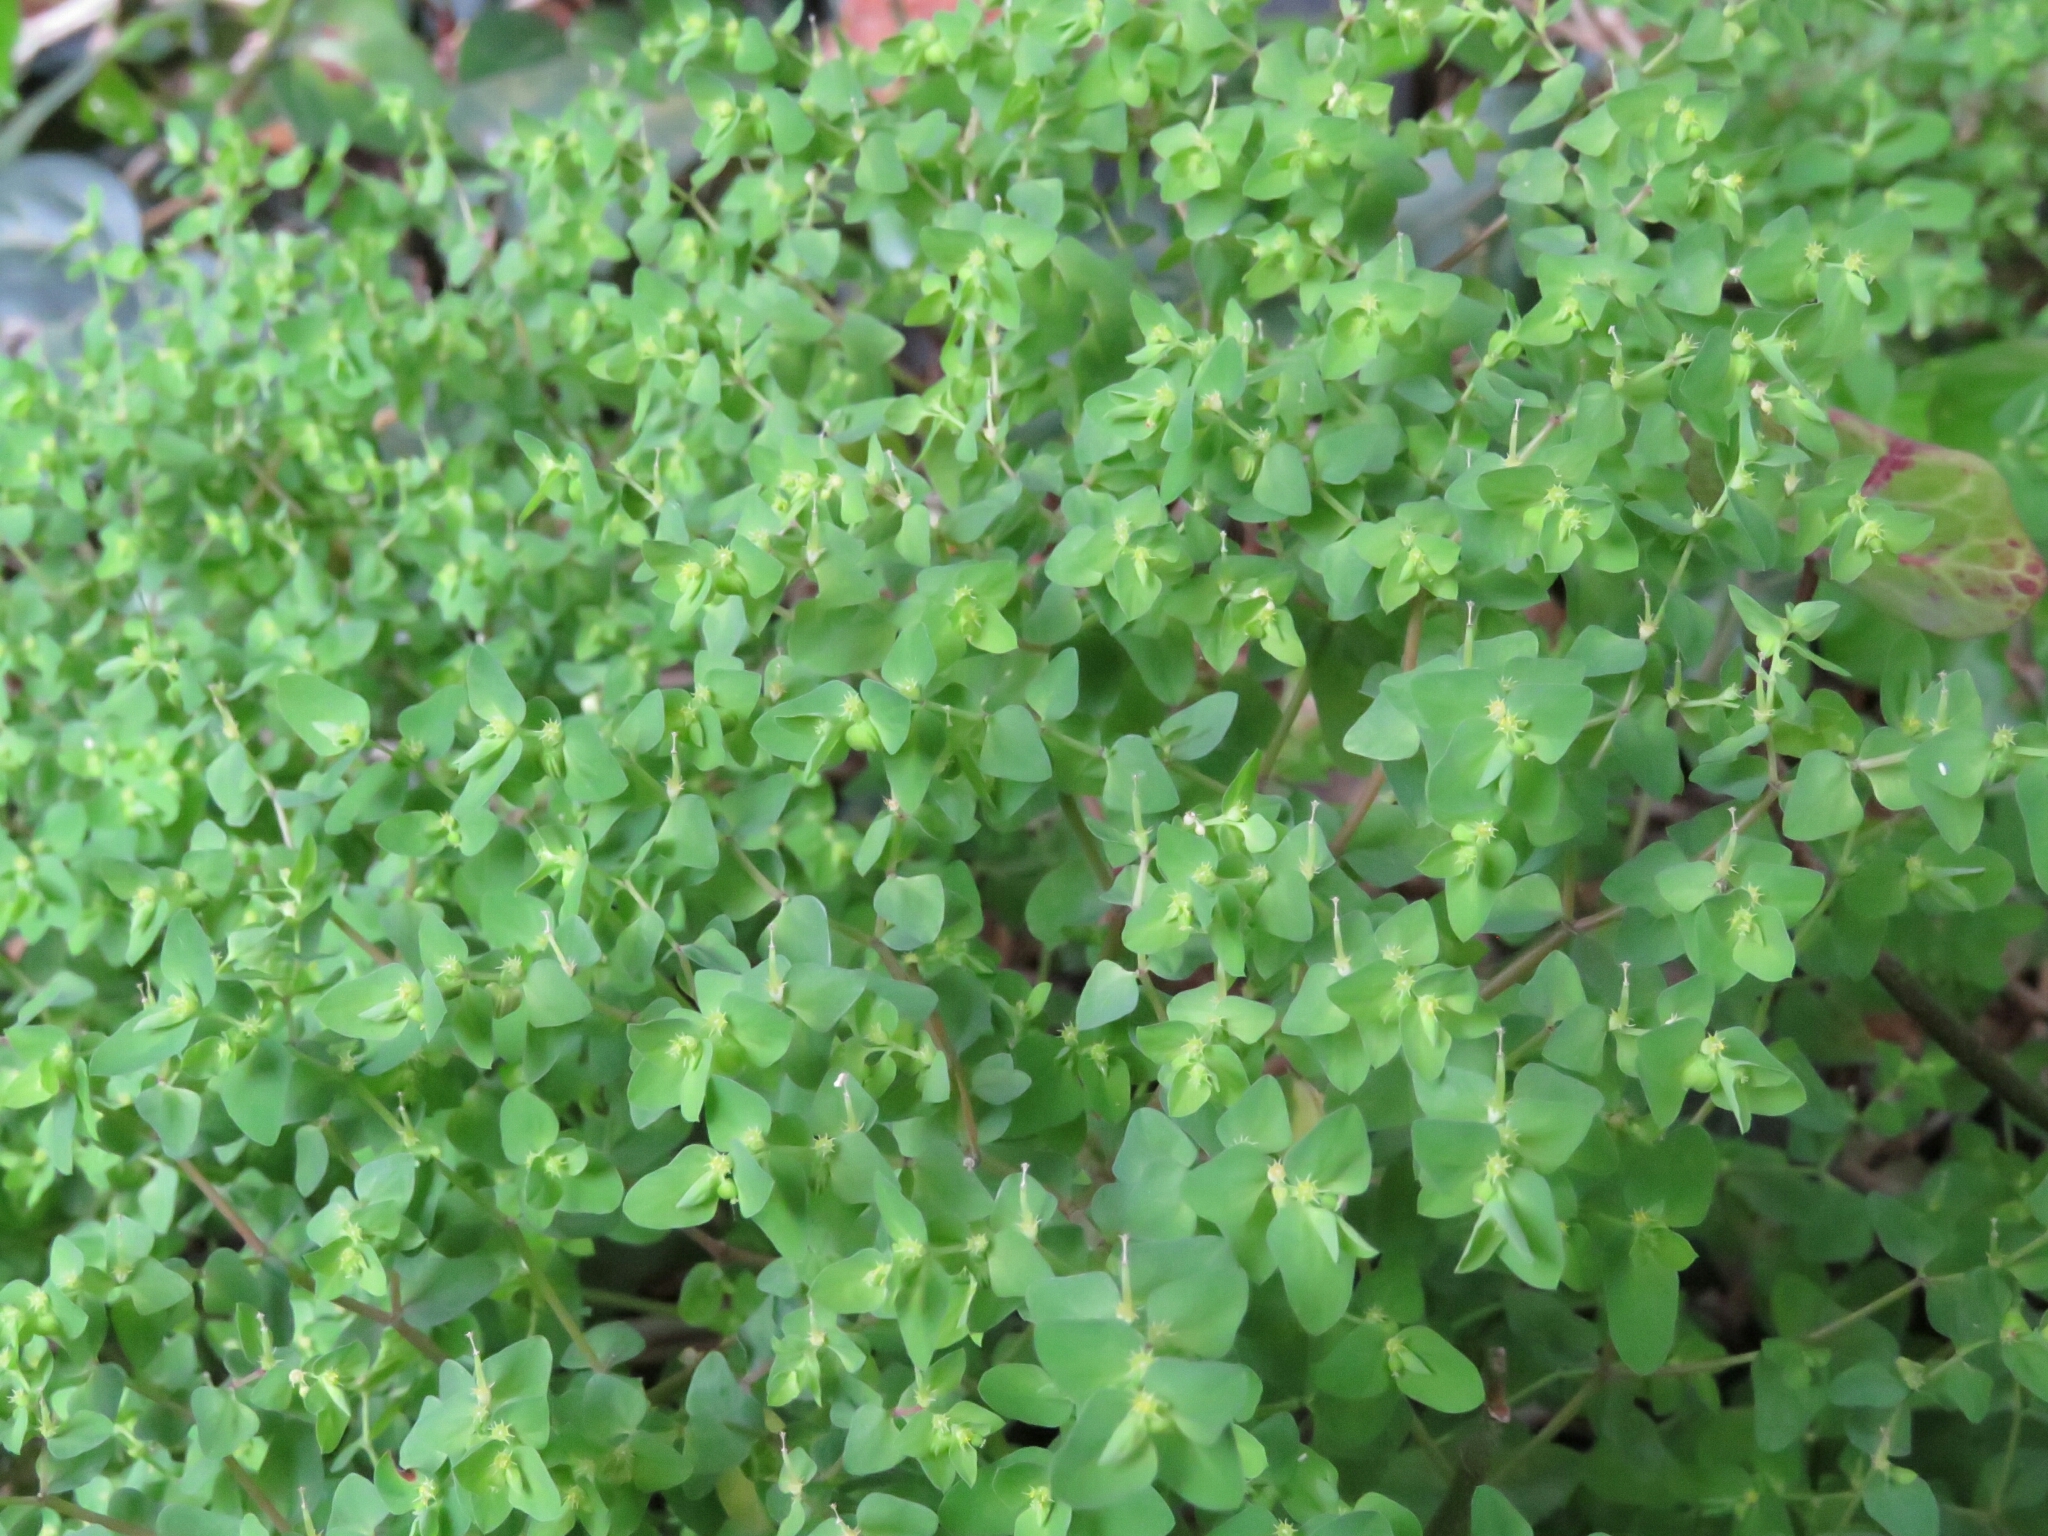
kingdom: Plantae
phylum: Tracheophyta
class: Magnoliopsida
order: Malpighiales
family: Euphorbiaceae
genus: Euphorbia
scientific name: Euphorbia peplus
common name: Petty spurge
